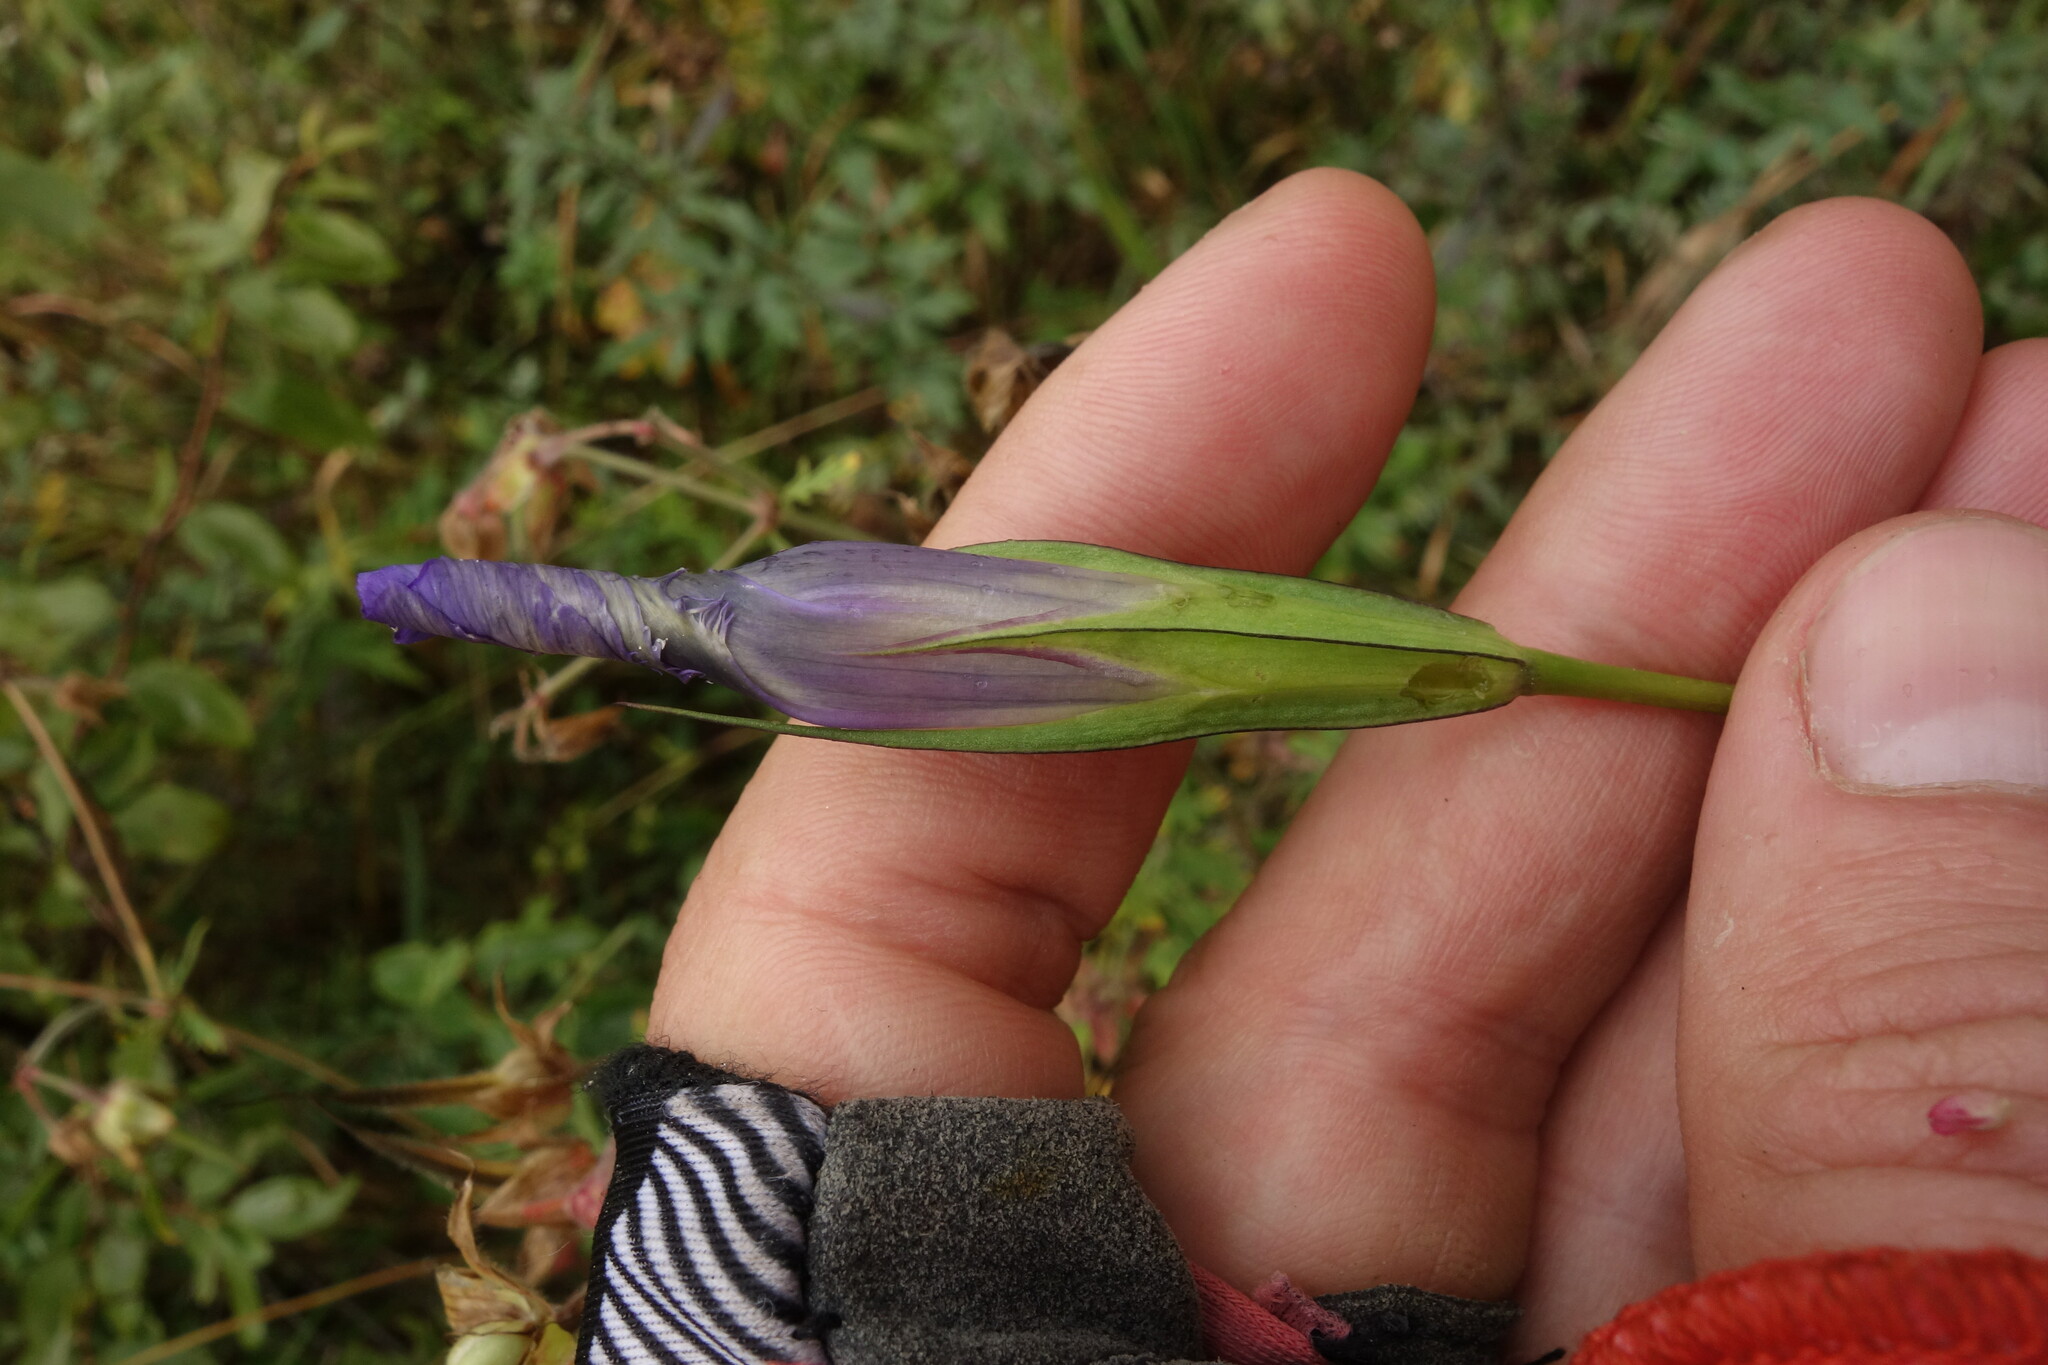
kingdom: Plantae
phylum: Tracheophyta
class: Magnoliopsida
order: Gentianales
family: Gentianaceae
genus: Gentianopsis
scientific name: Gentianopsis barbata
